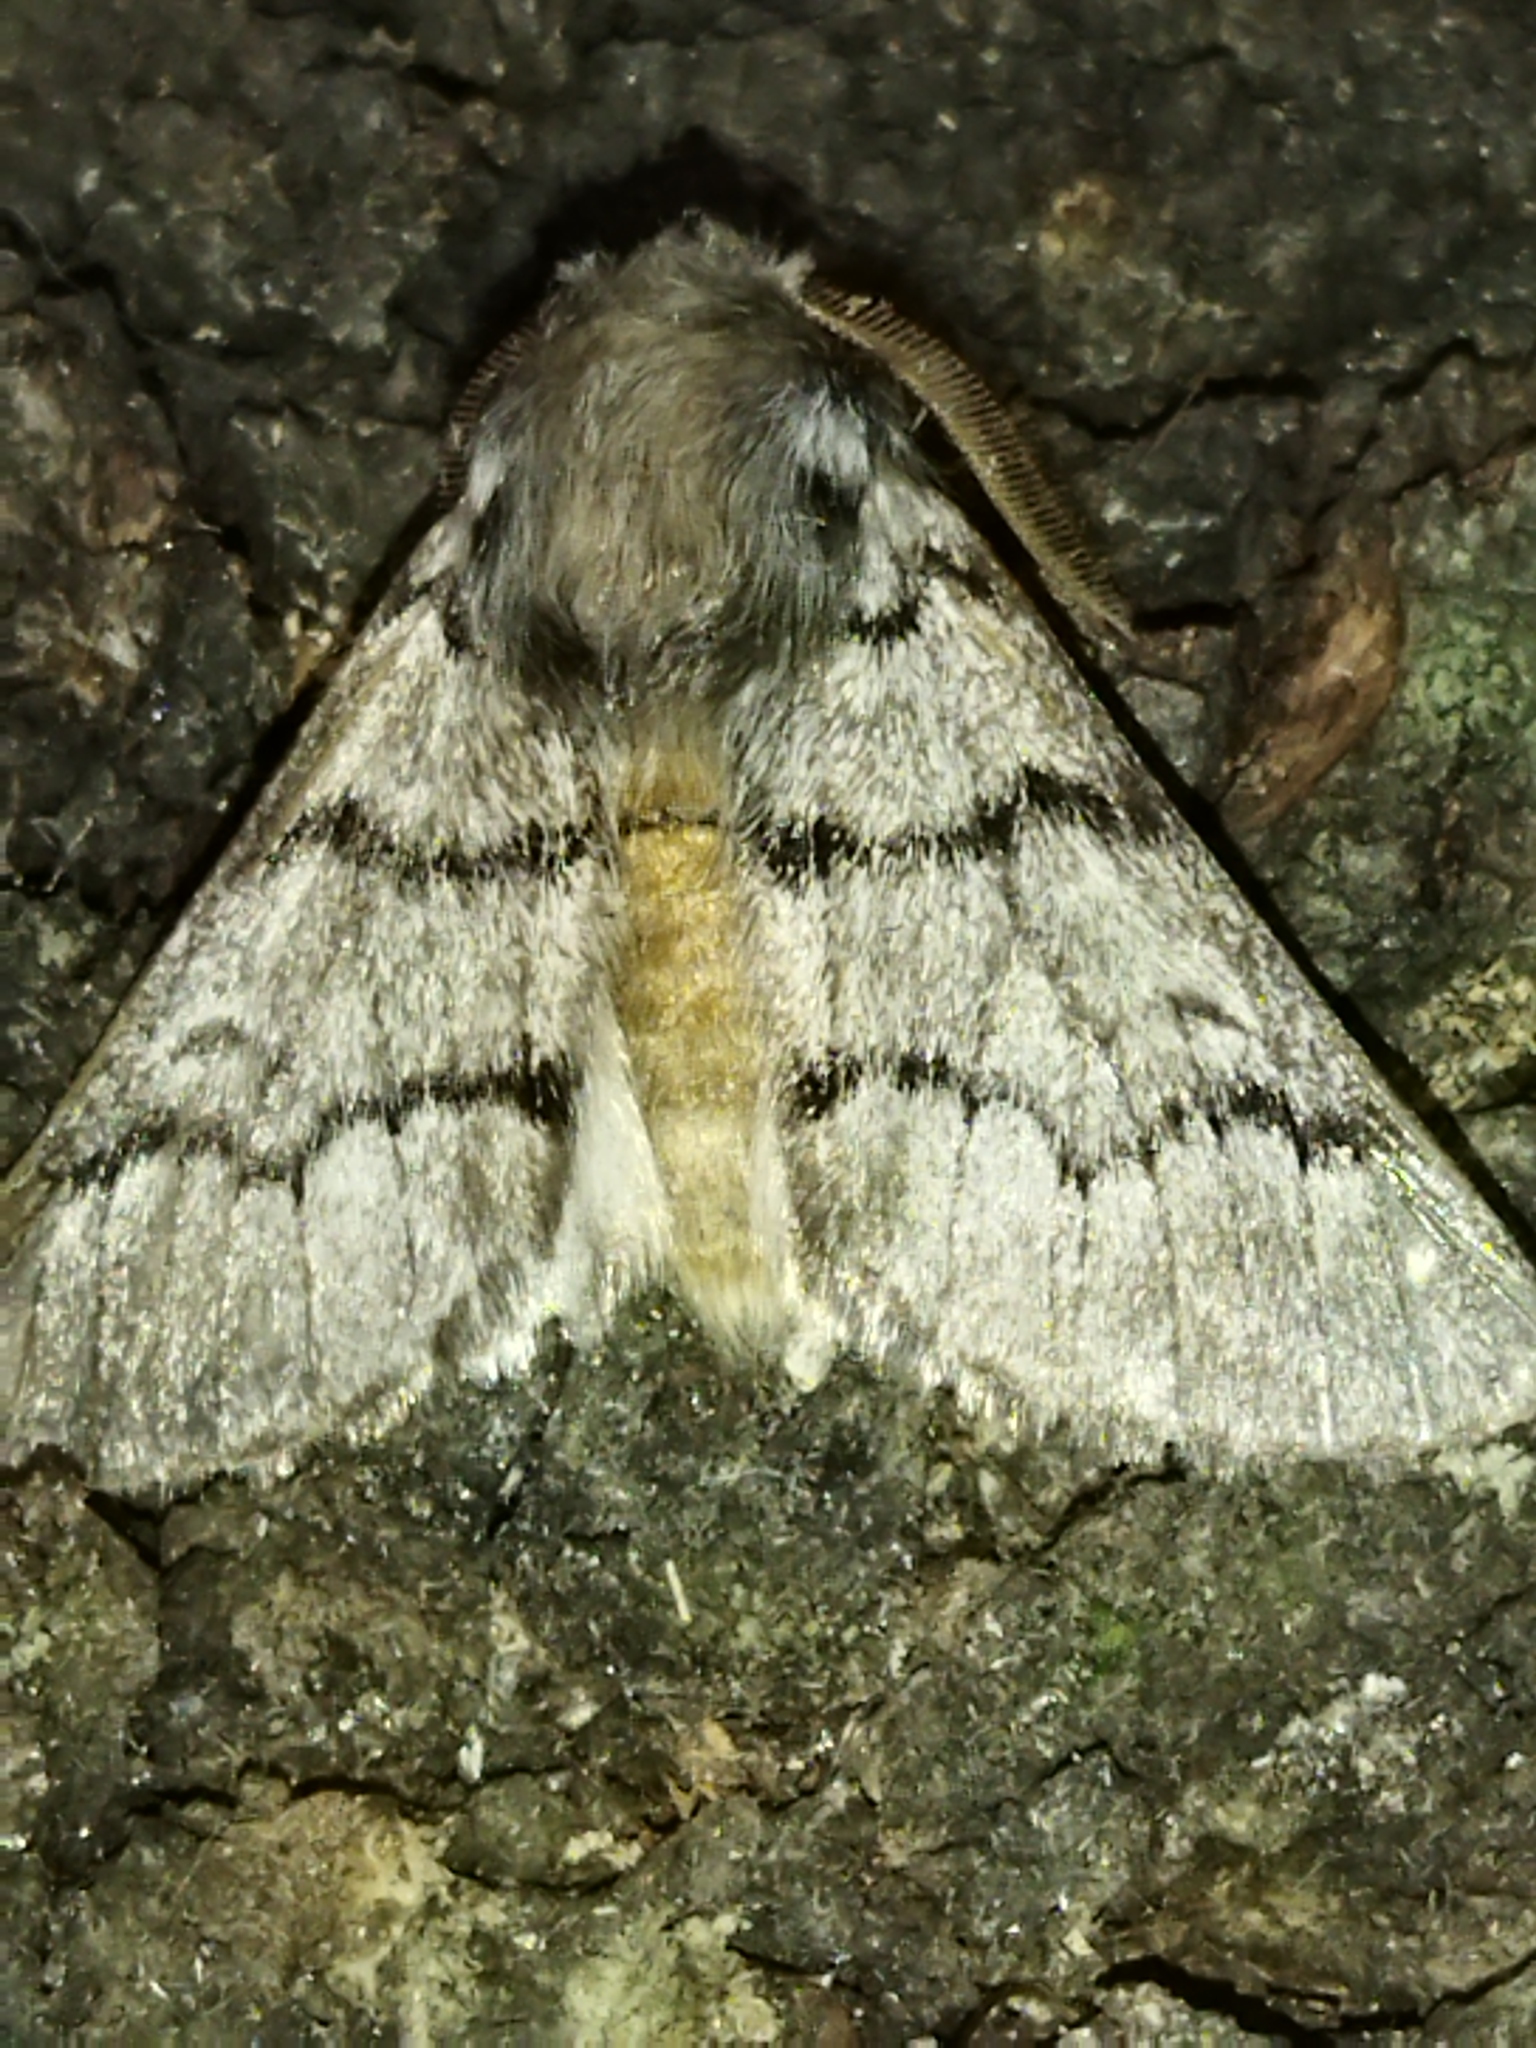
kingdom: Animalia
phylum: Arthropoda
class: Insecta
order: Lepidoptera
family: Notodontidae
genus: Thaumetopoea
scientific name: Thaumetopoea pityocampa
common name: Pine processionary
